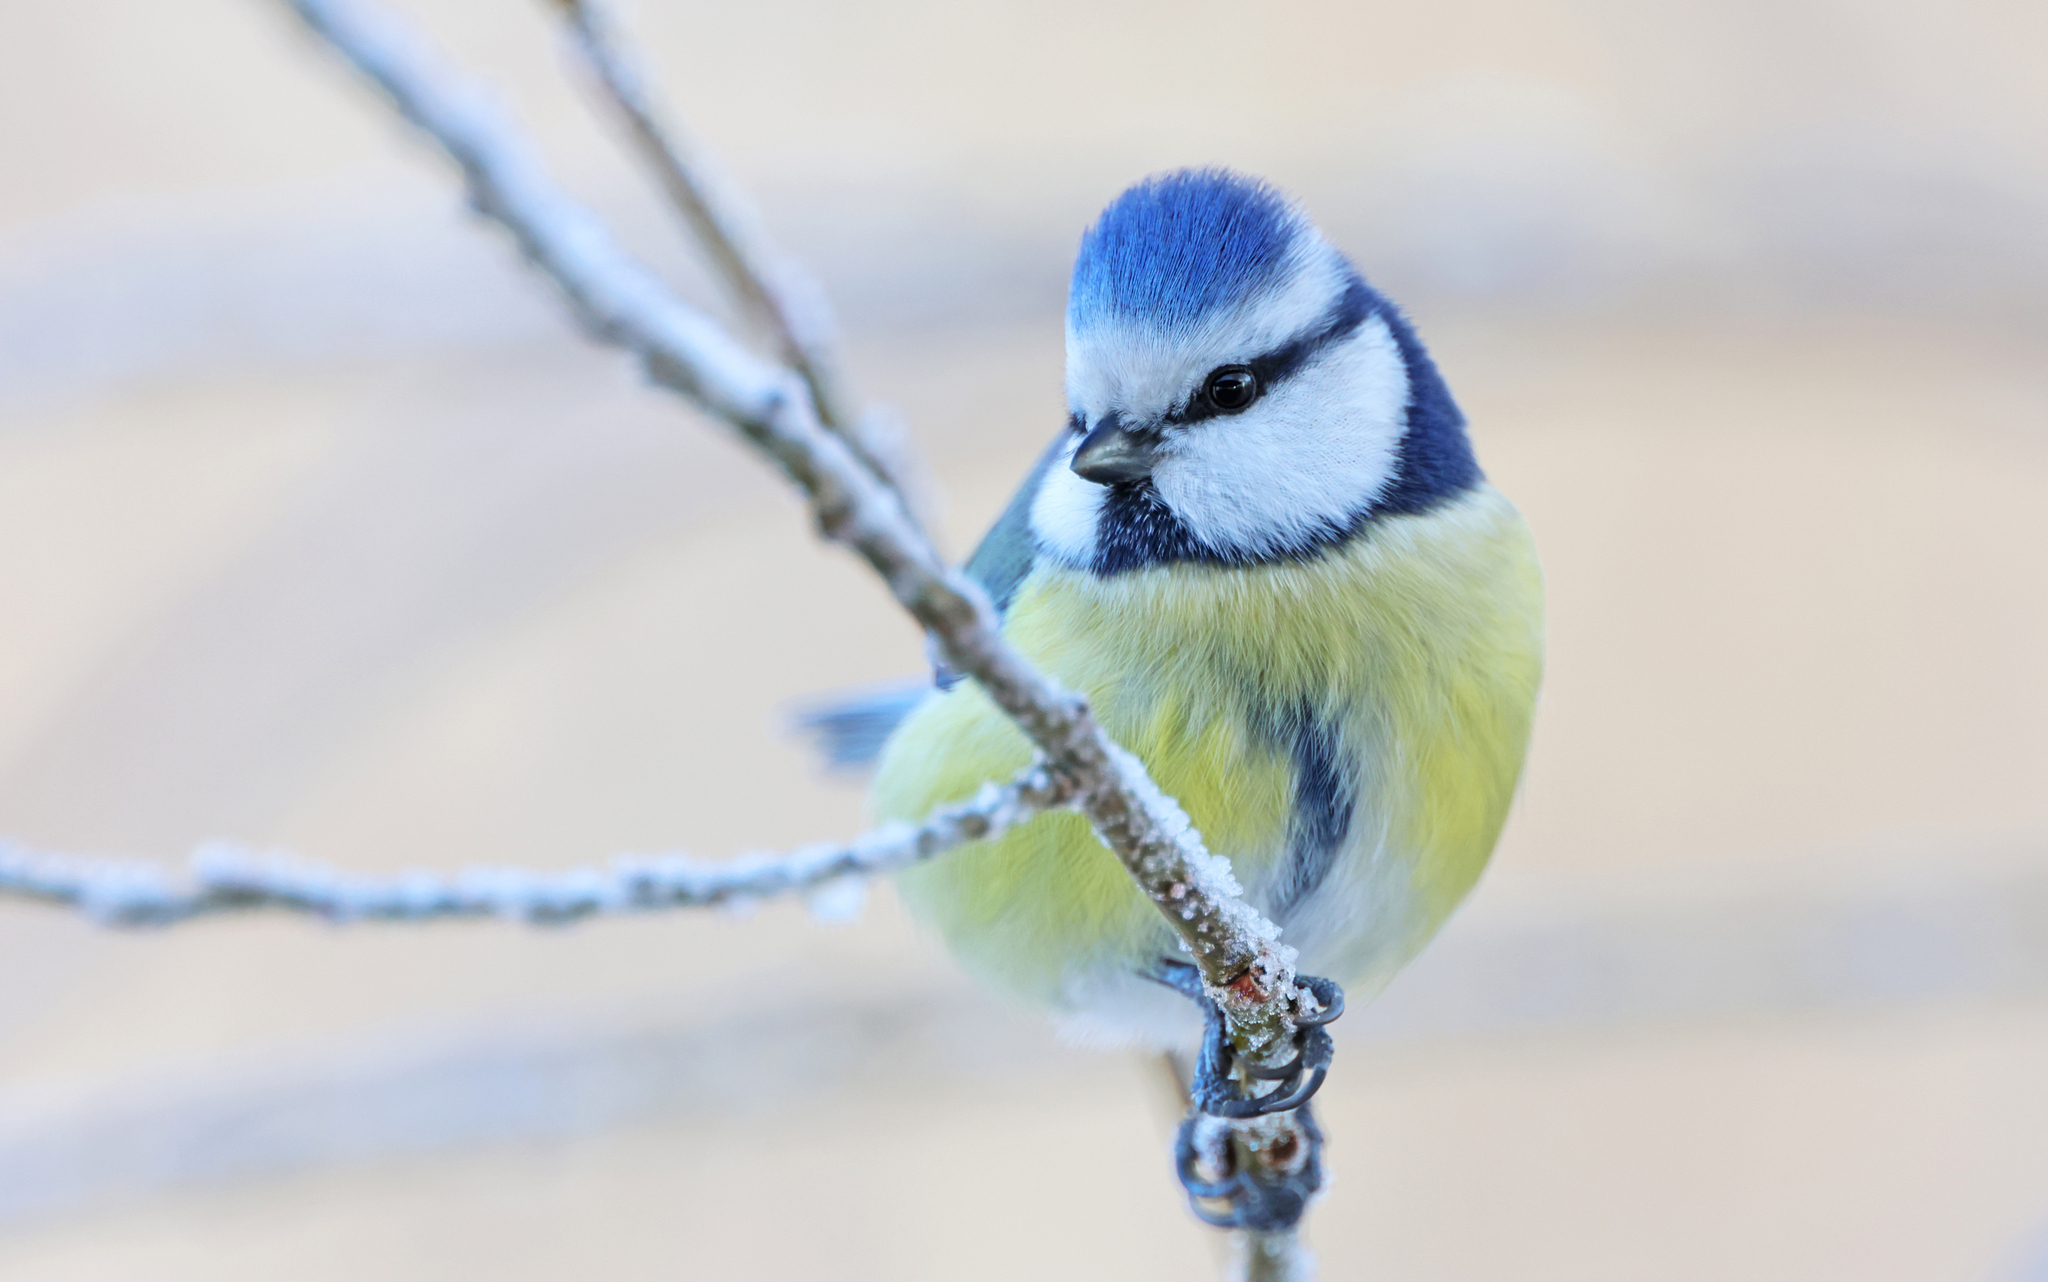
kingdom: Animalia
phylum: Chordata
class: Aves
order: Passeriformes
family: Paridae
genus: Cyanistes
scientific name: Cyanistes caeruleus
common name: Eurasian blue tit
